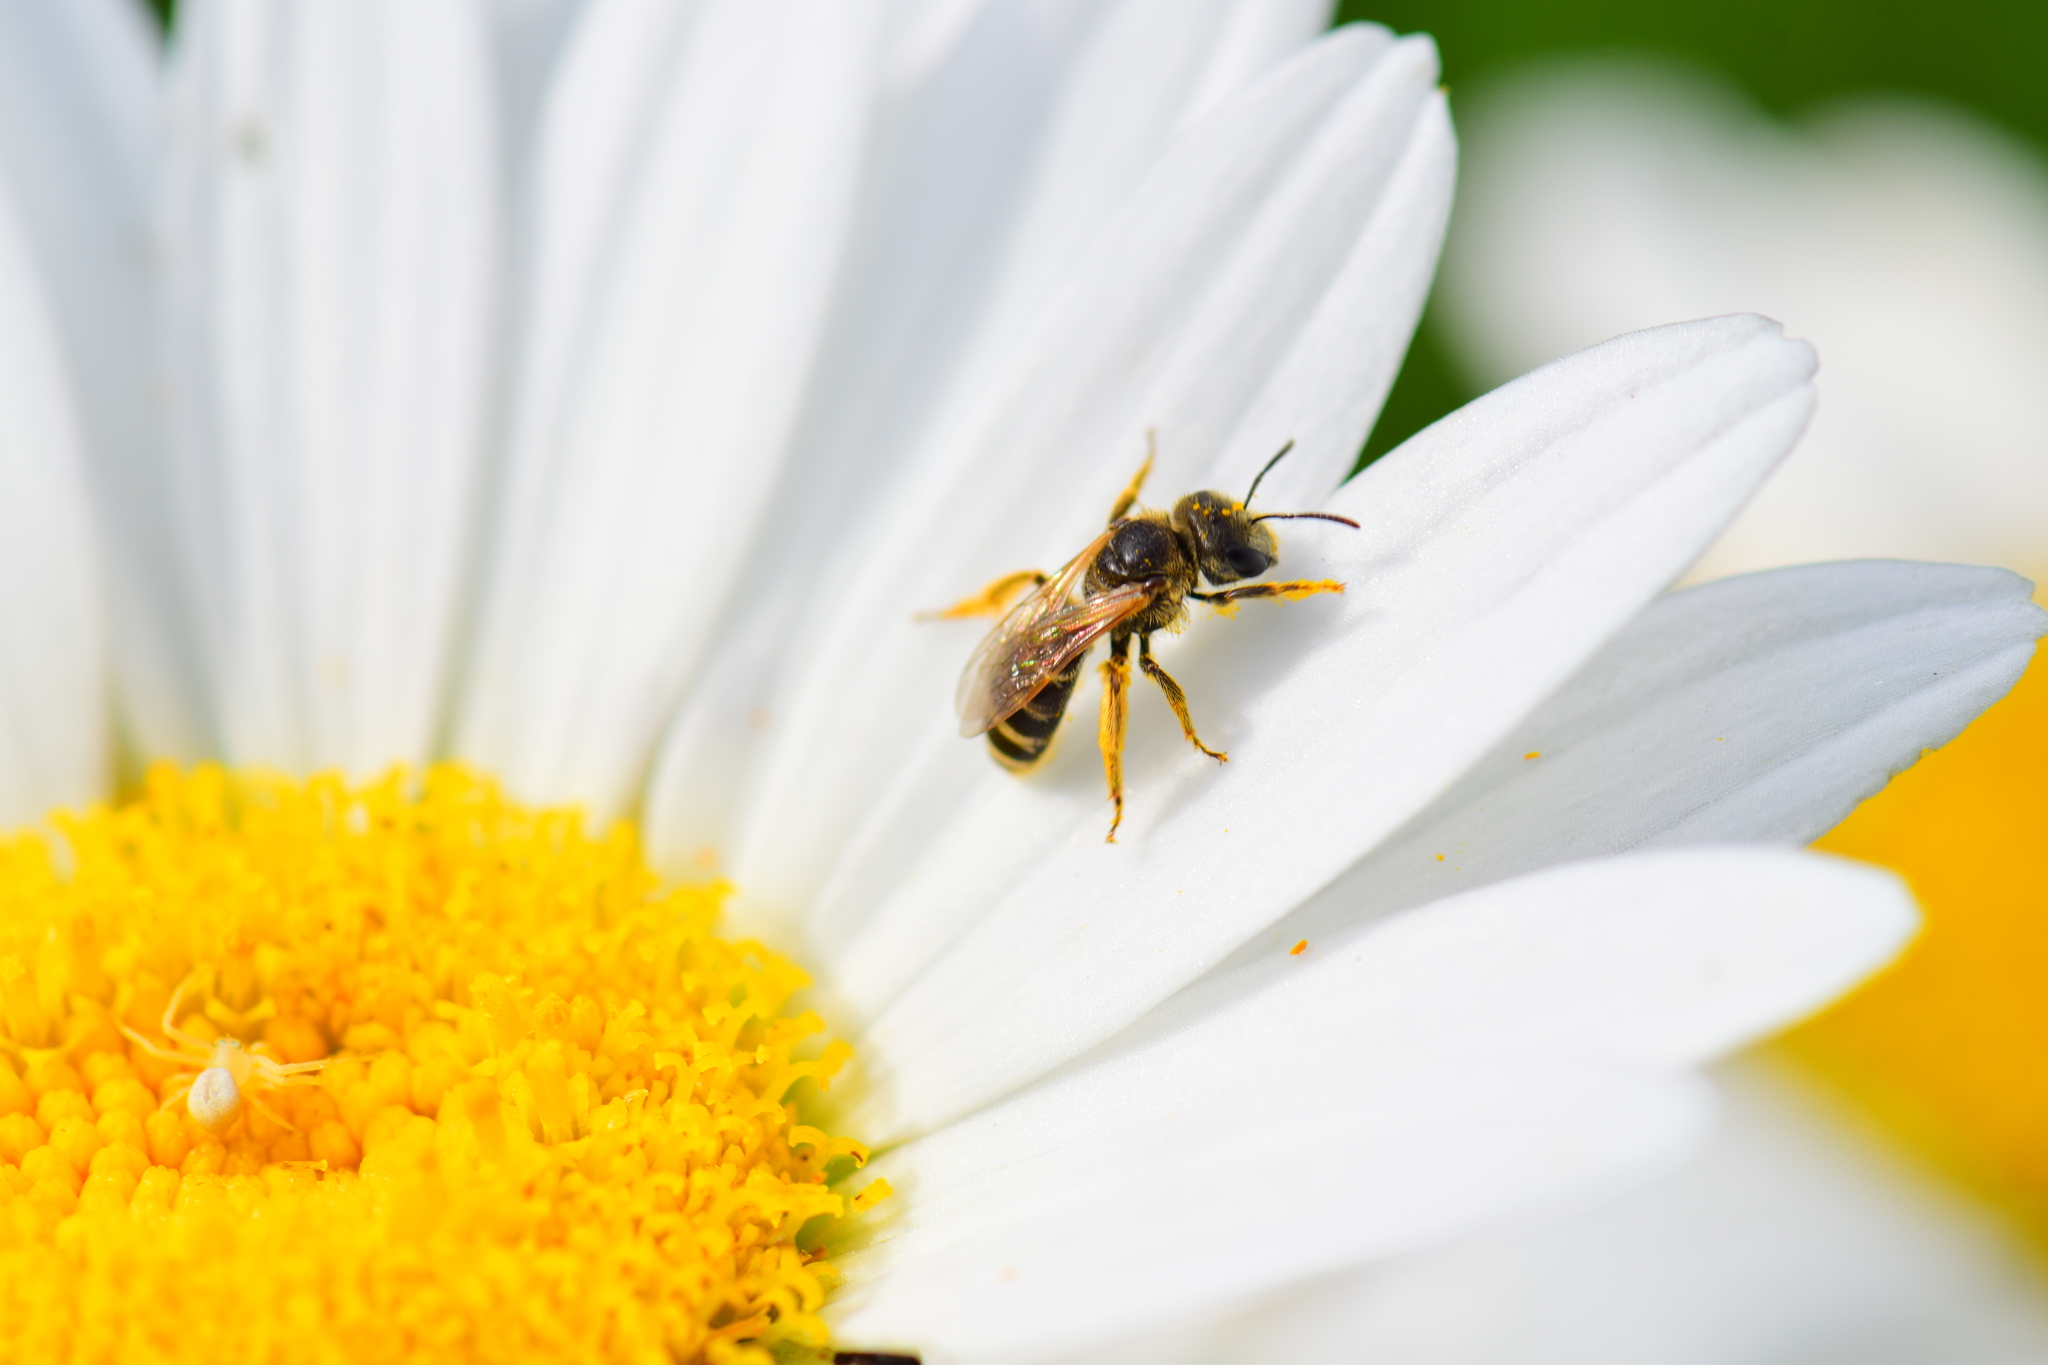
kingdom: Animalia
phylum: Arthropoda
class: Insecta
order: Hymenoptera
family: Halictidae
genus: Halictus
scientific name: Halictus ligatus
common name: Ligated furrow bee
